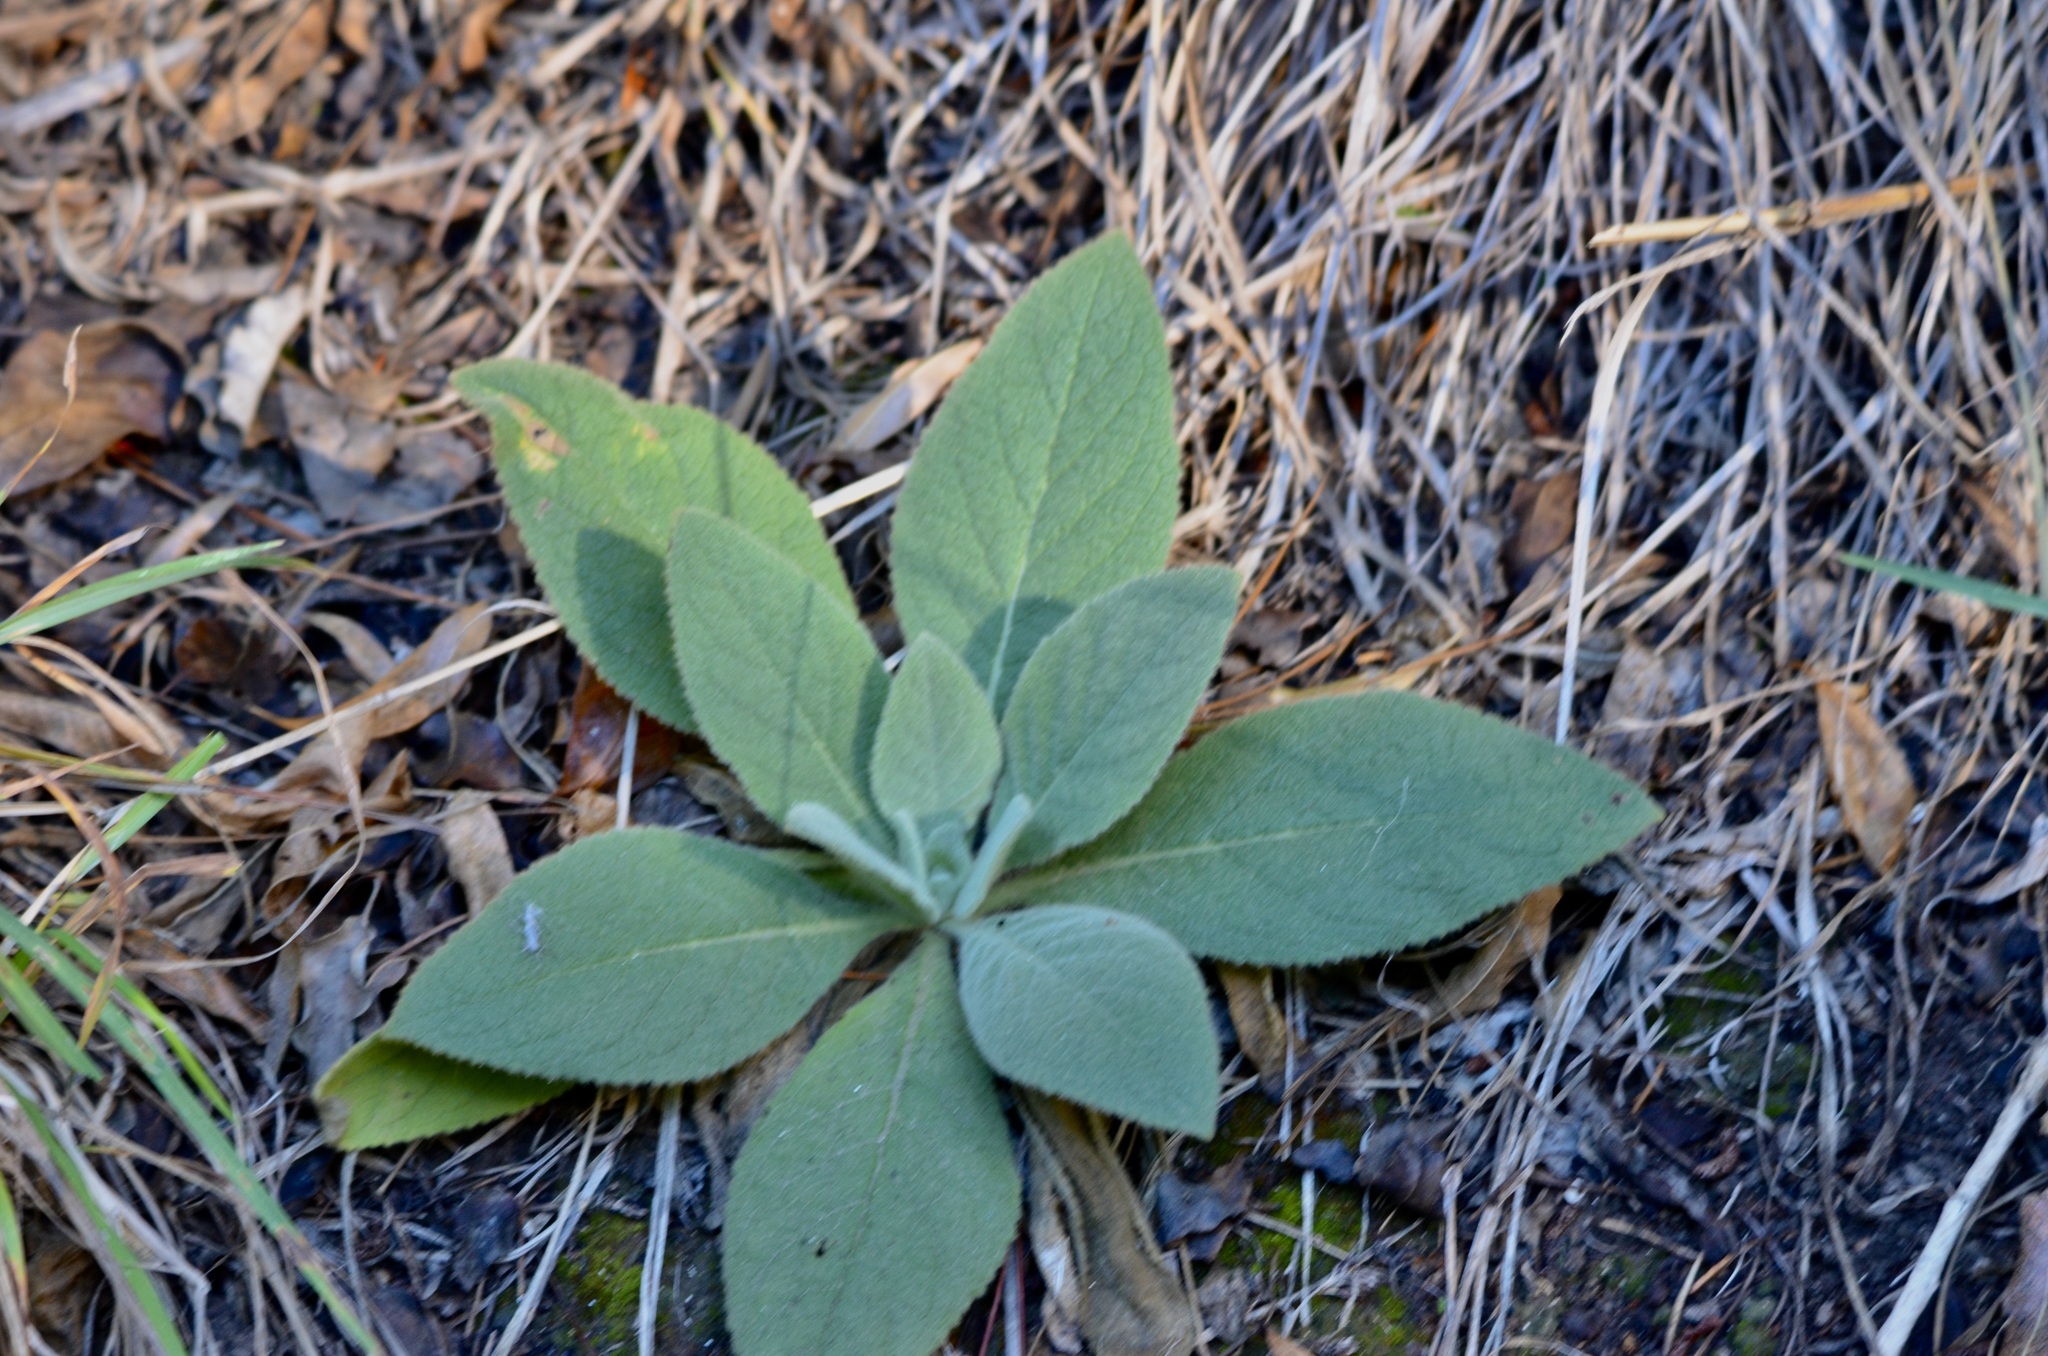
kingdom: Plantae
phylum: Tracheophyta
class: Magnoliopsida
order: Lamiales
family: Scrophulariaceae
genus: Verbascum
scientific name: Verbascum thapsus
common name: Common mullein
